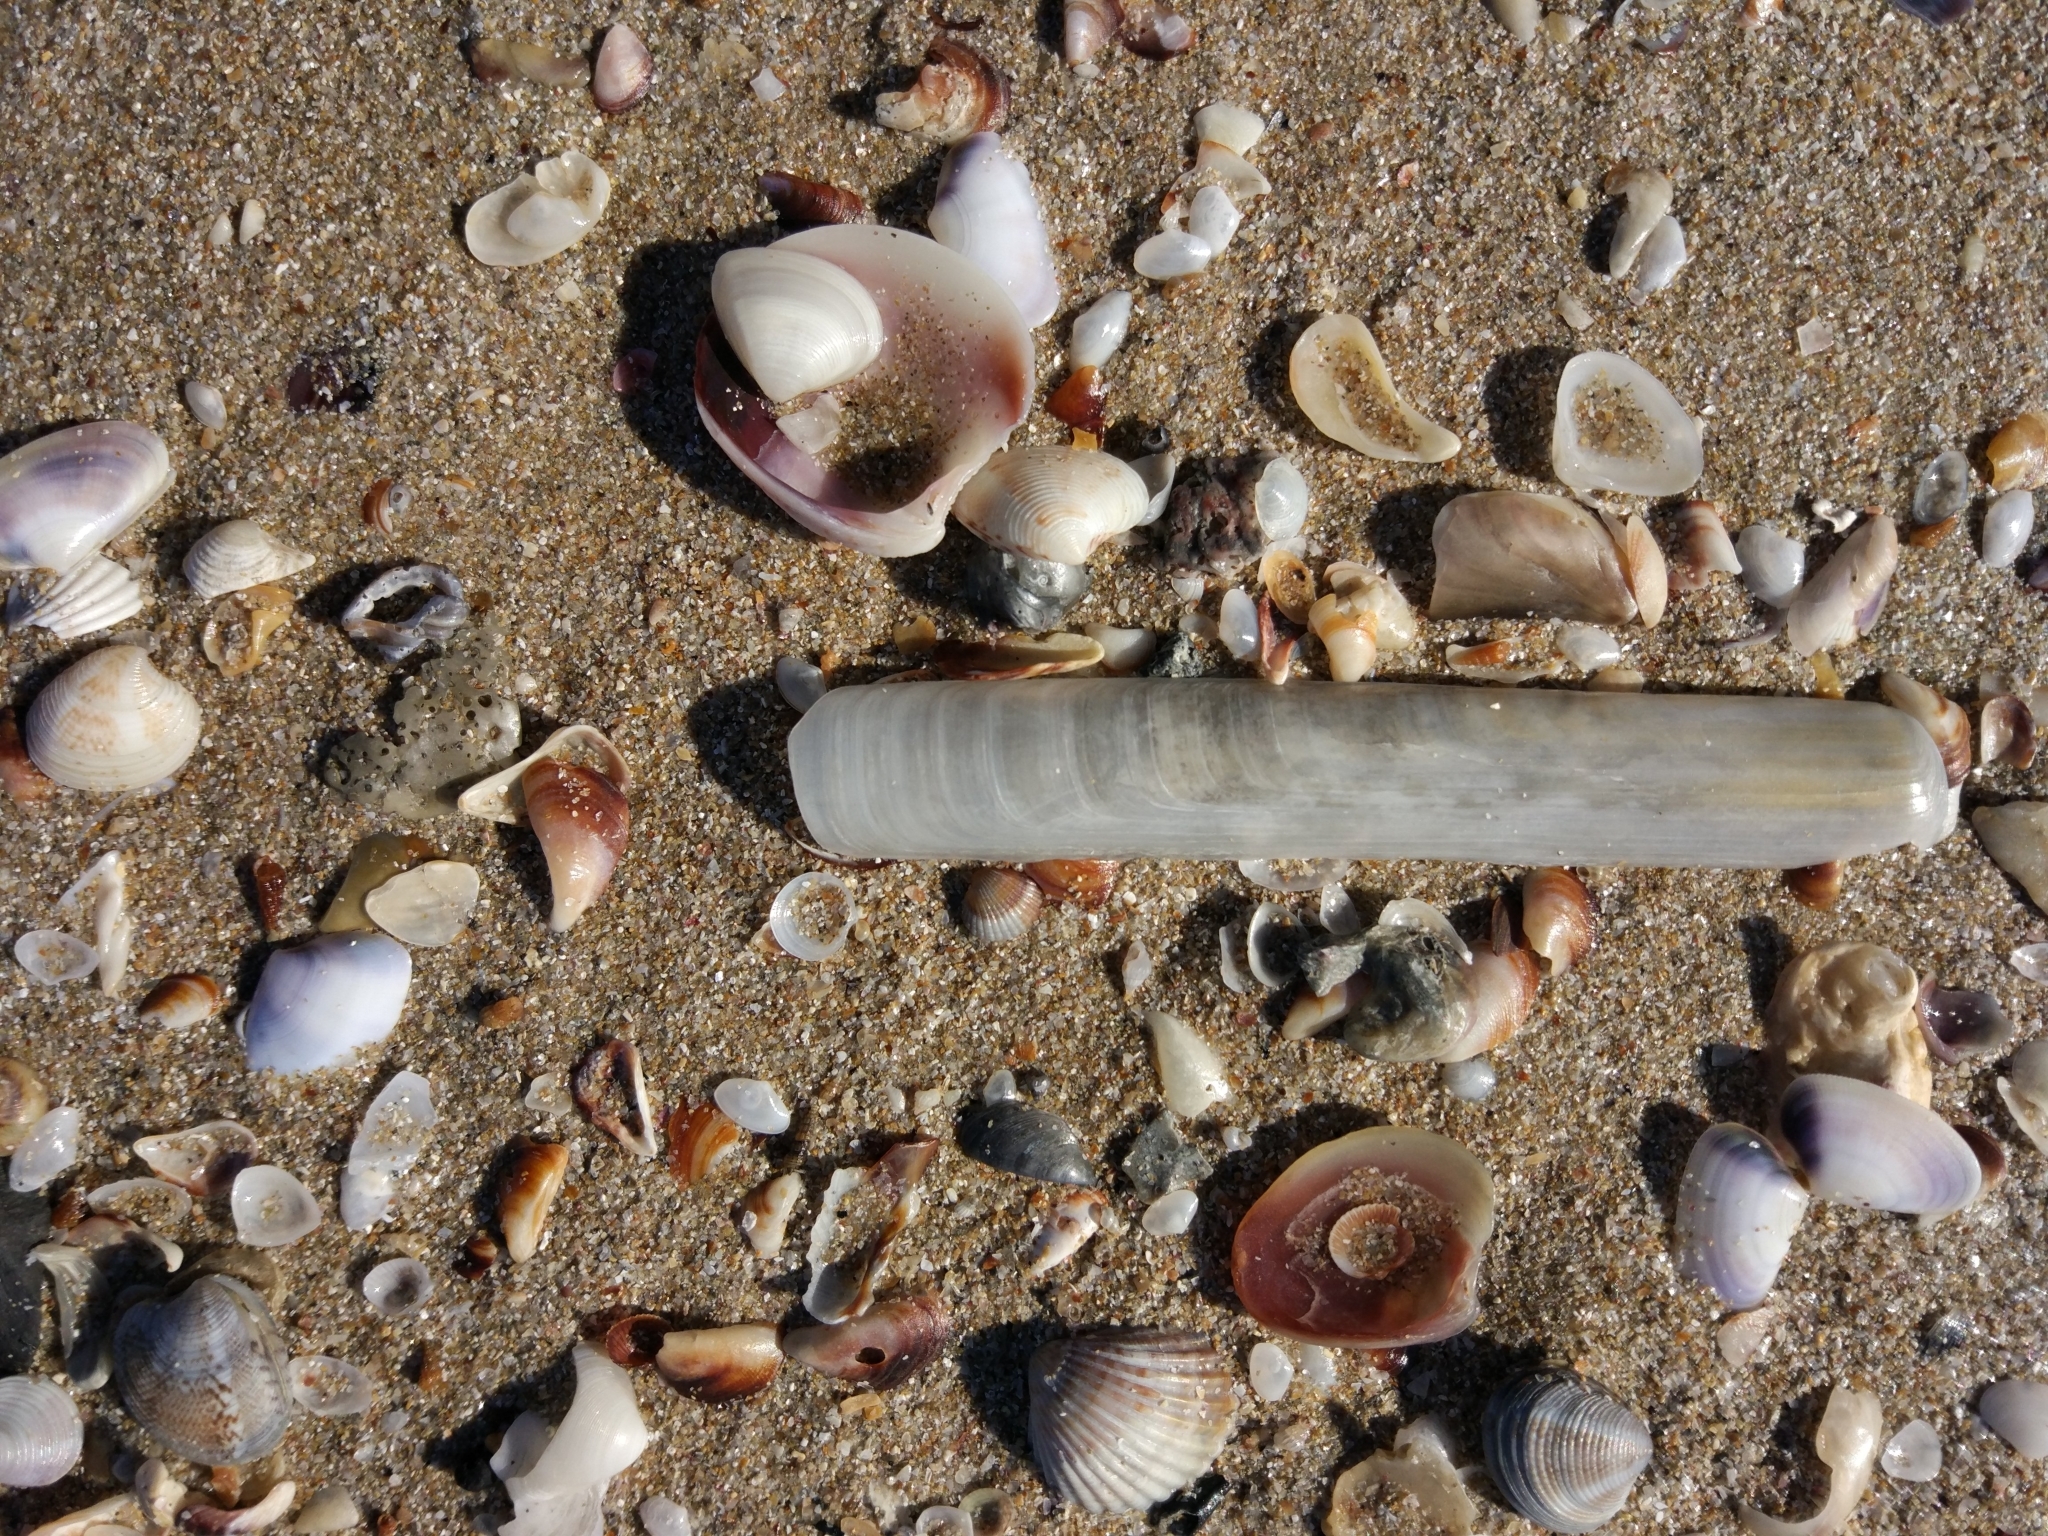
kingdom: Animalia
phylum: Mollusca
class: Bivalvia
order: Adapedonta
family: Solenidae
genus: Solen
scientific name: Solen marginatus
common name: Grooved razor shell
